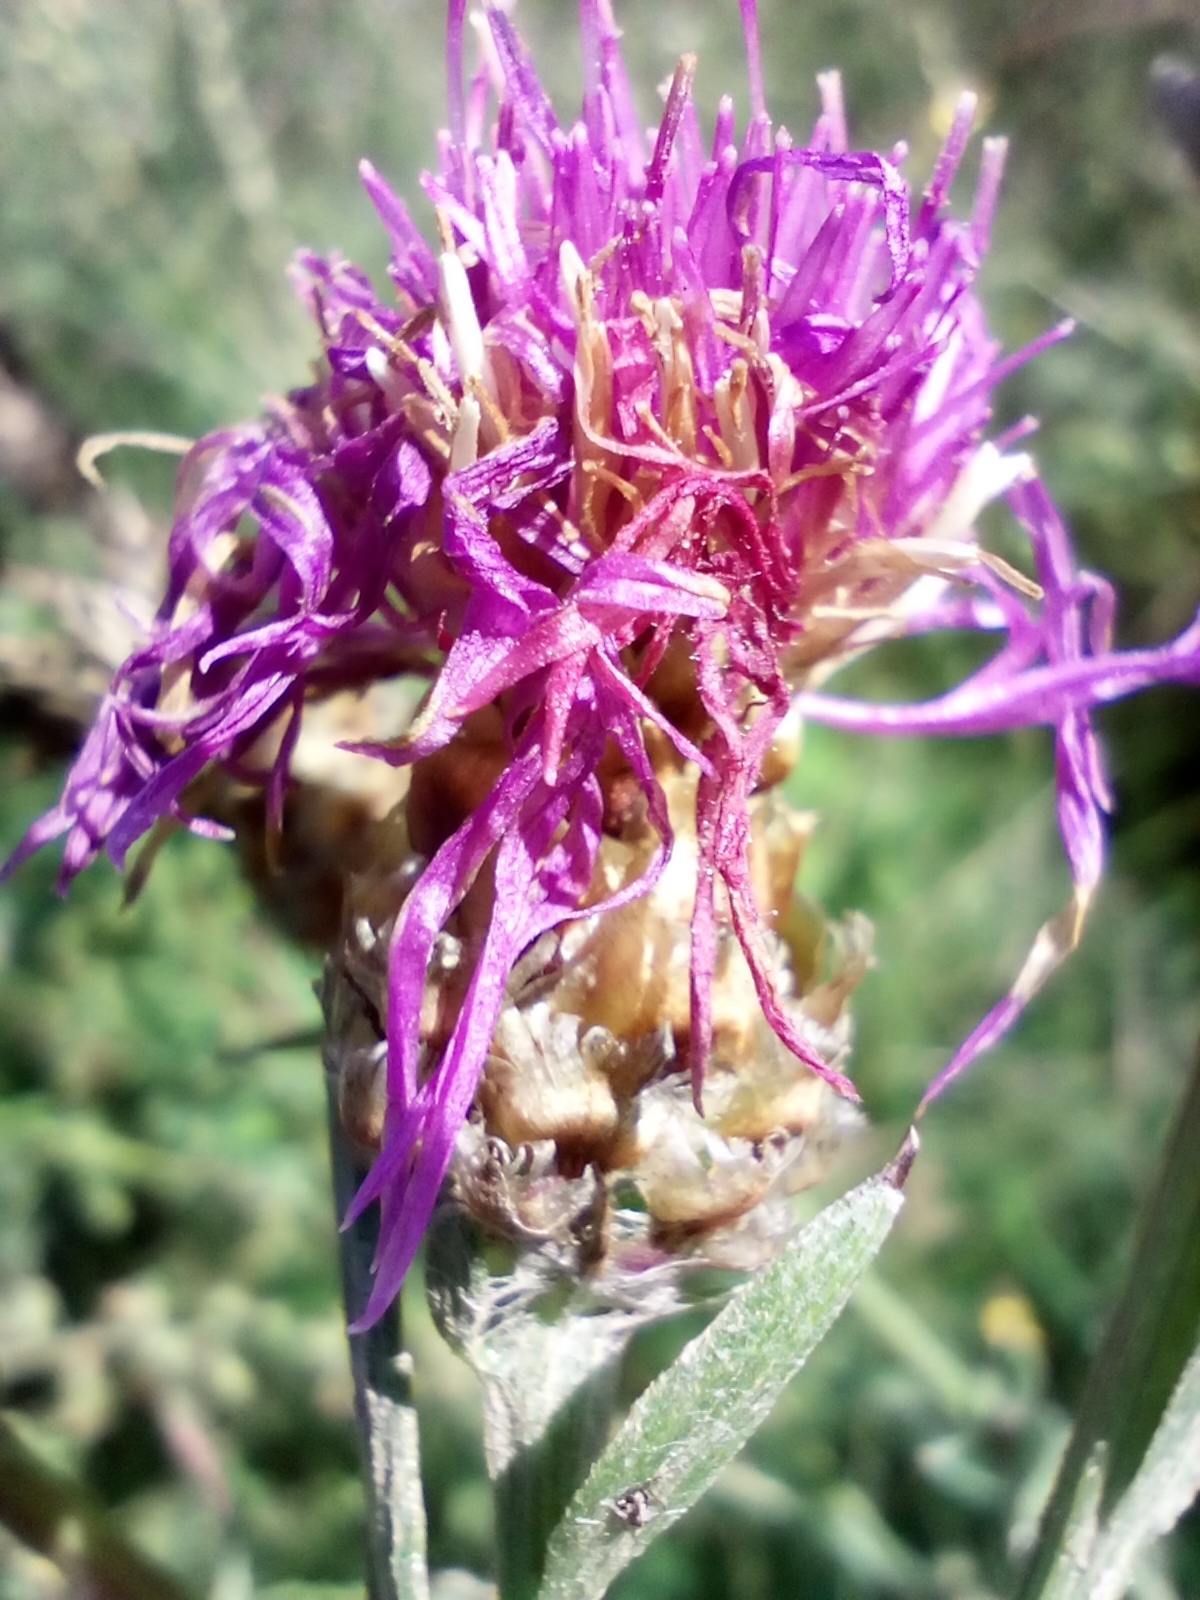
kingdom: Plantae
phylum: Tracheophyta
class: Magnoliopsida
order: Asterales
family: Asteraceae
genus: Centaurea
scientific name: Centaurea jacea
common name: Brown knapweed
